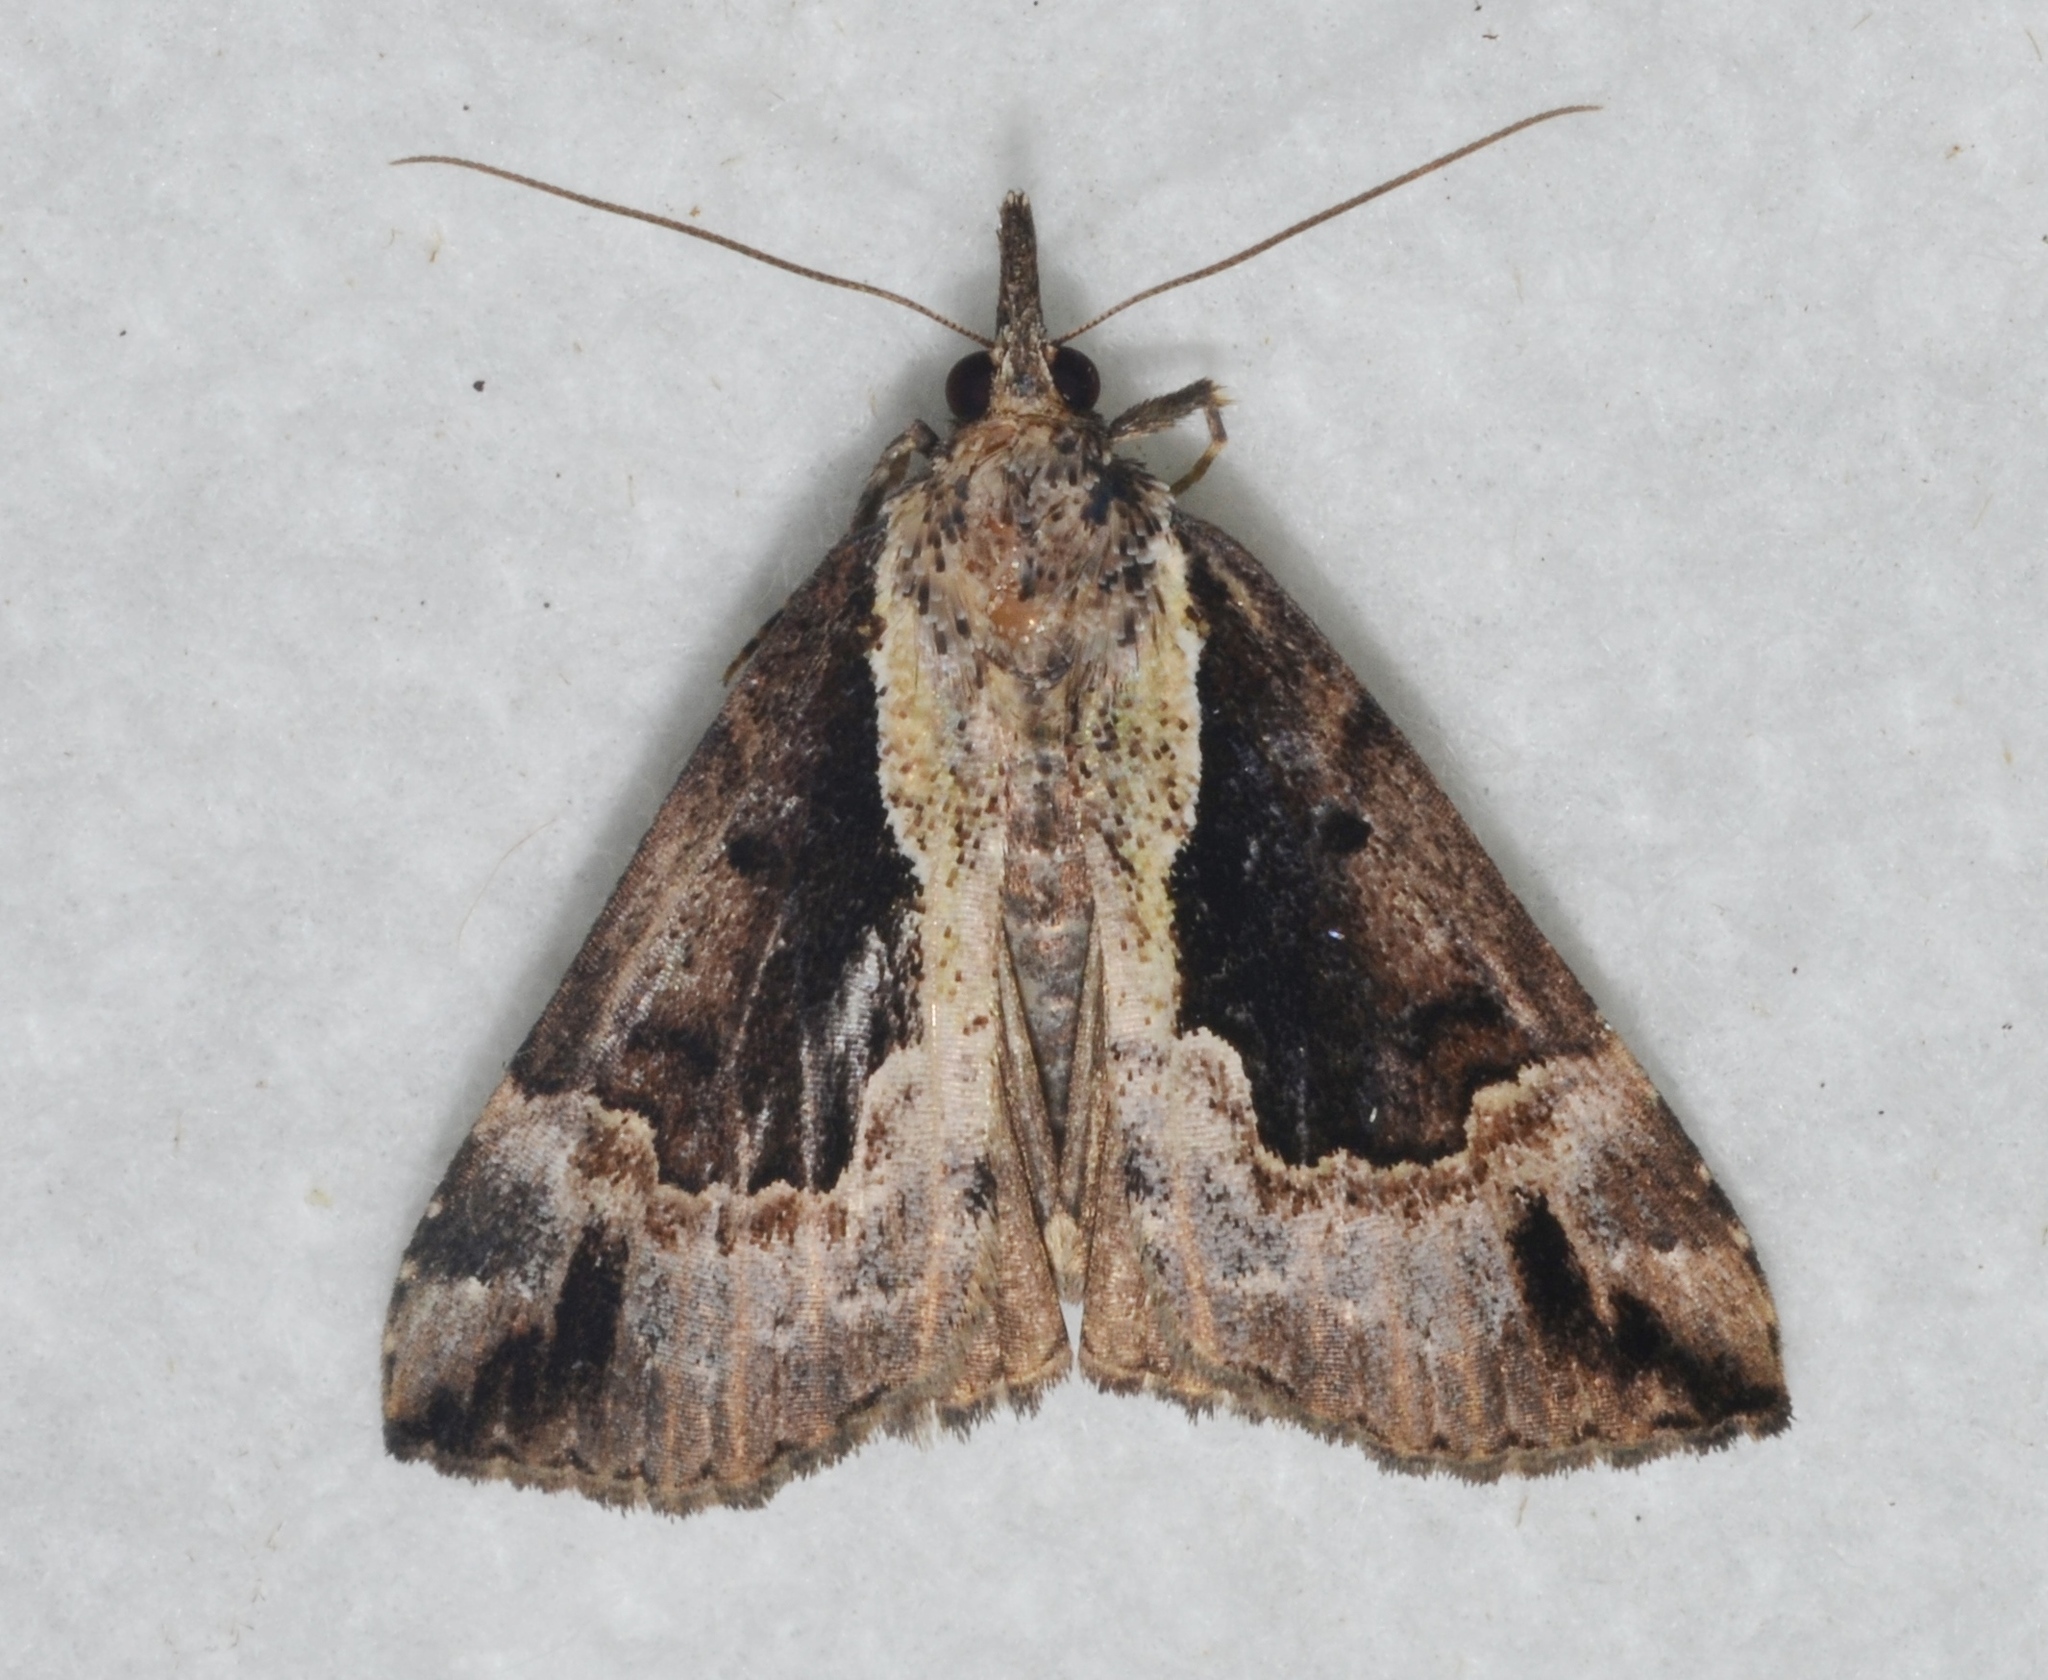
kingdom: Animalia
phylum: Arthropoda
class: Insecta
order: Lepidoptera
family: Erebidae
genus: Hypena
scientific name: Hypena baltimoralis
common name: Baltimore snout
